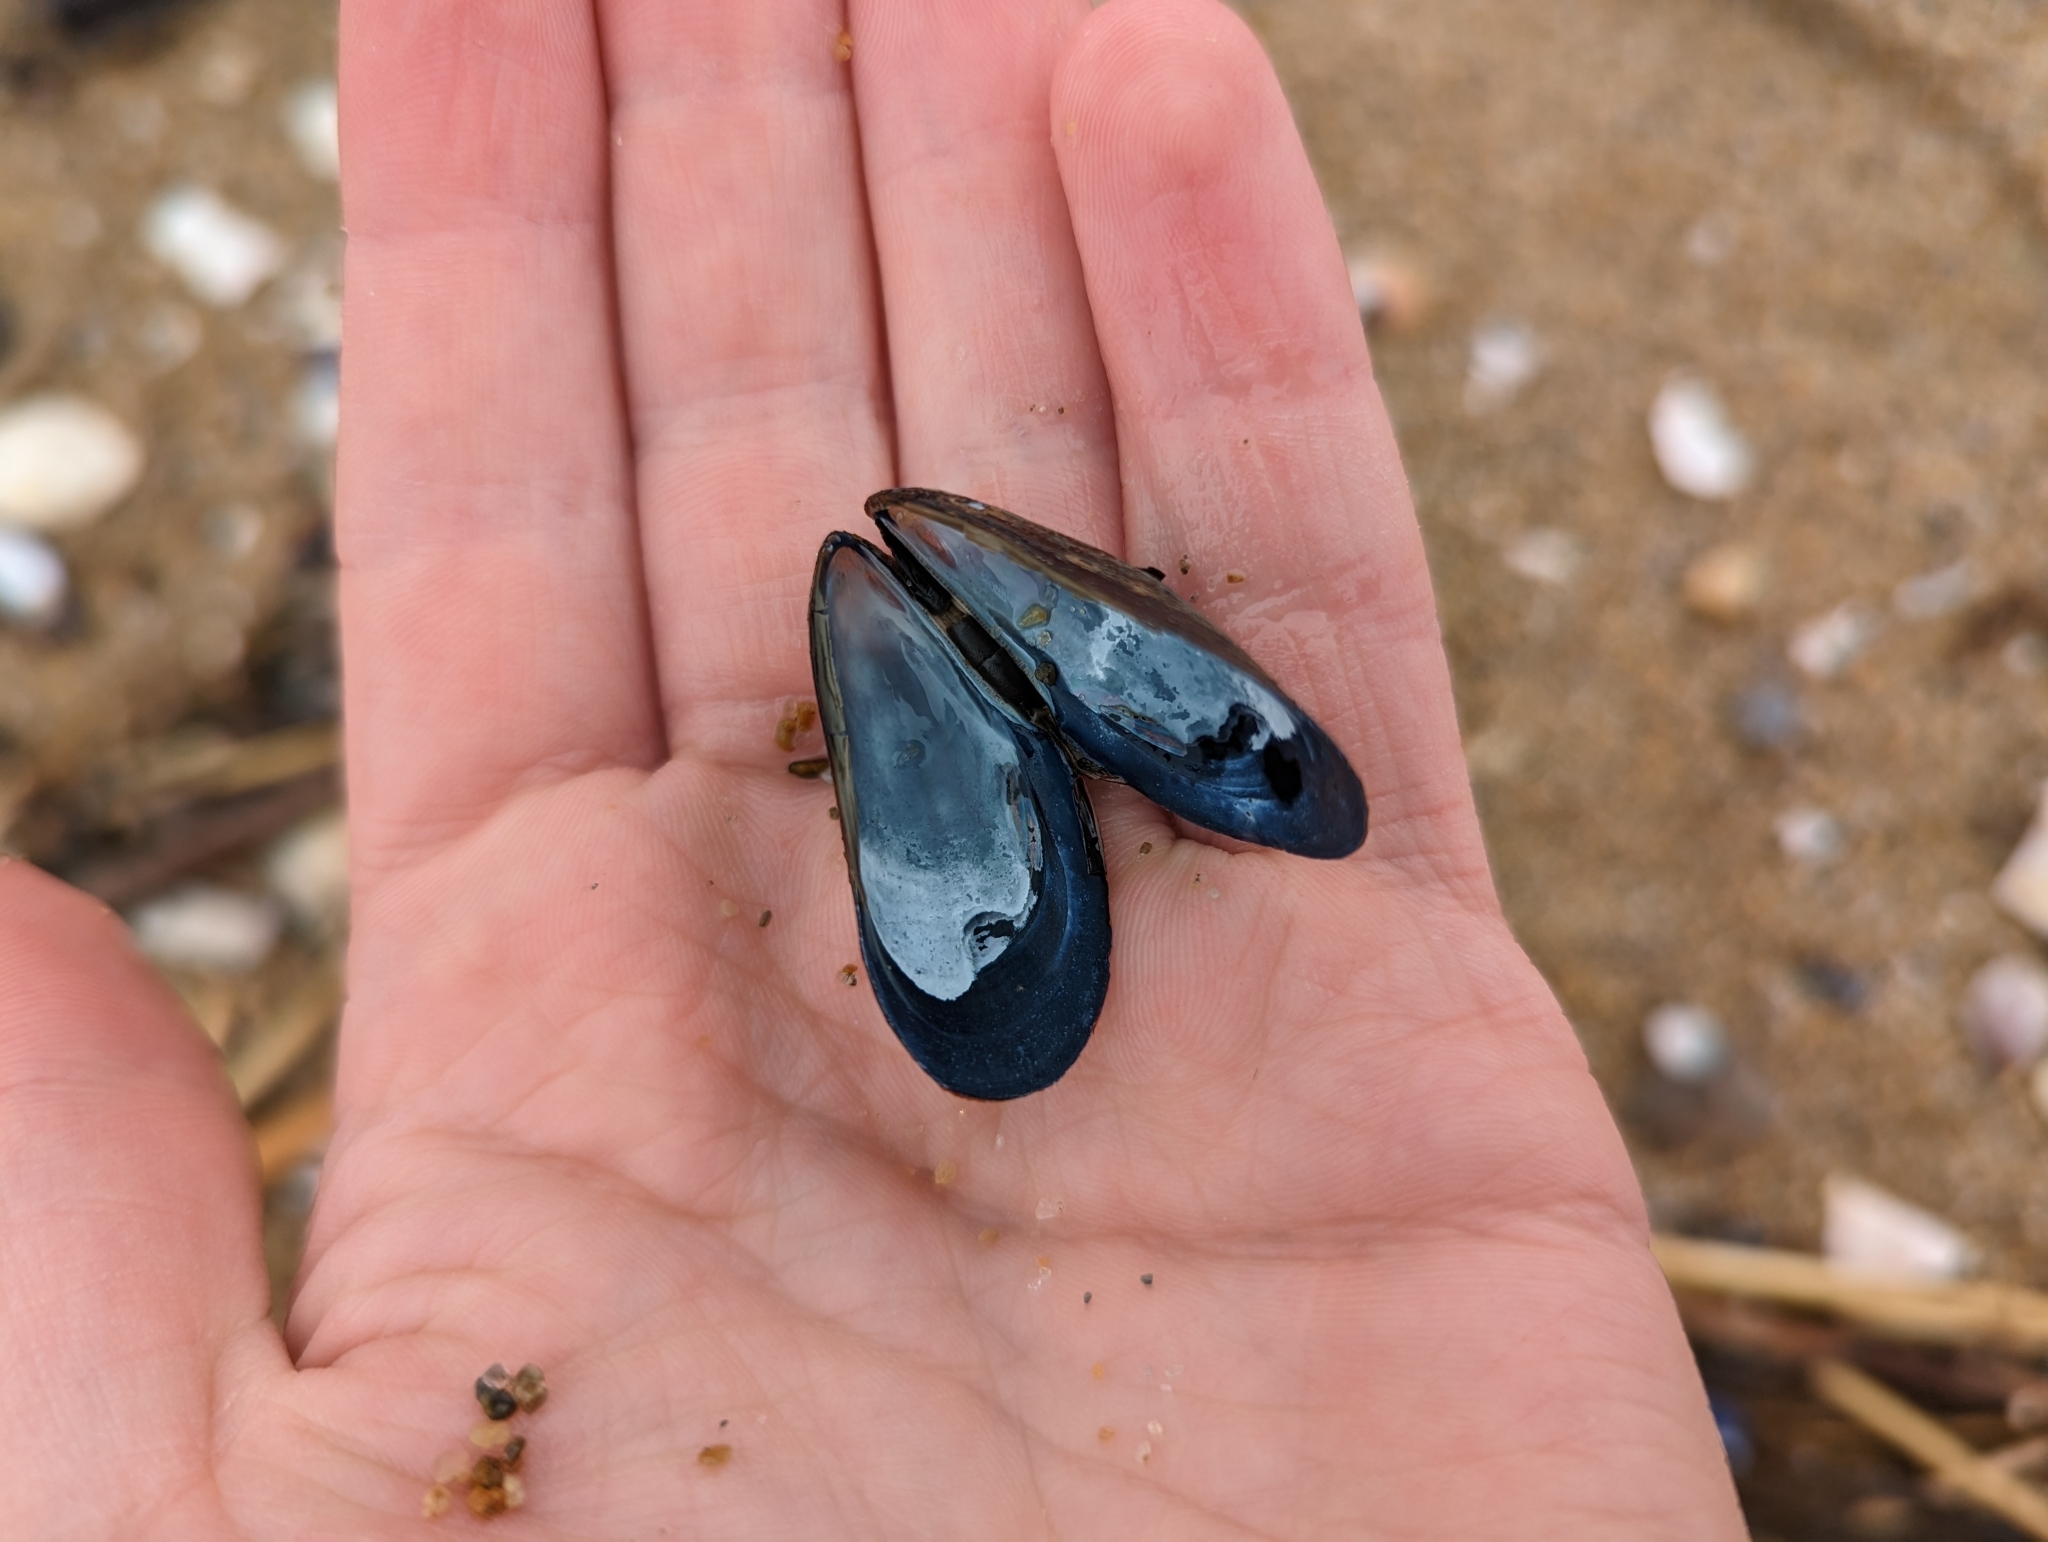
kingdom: Animalia
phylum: Mollusca
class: Bivalvia
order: Mytilida
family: Mytilidae
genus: Mytilus
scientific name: Mytilus edulis
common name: Blue mussel
